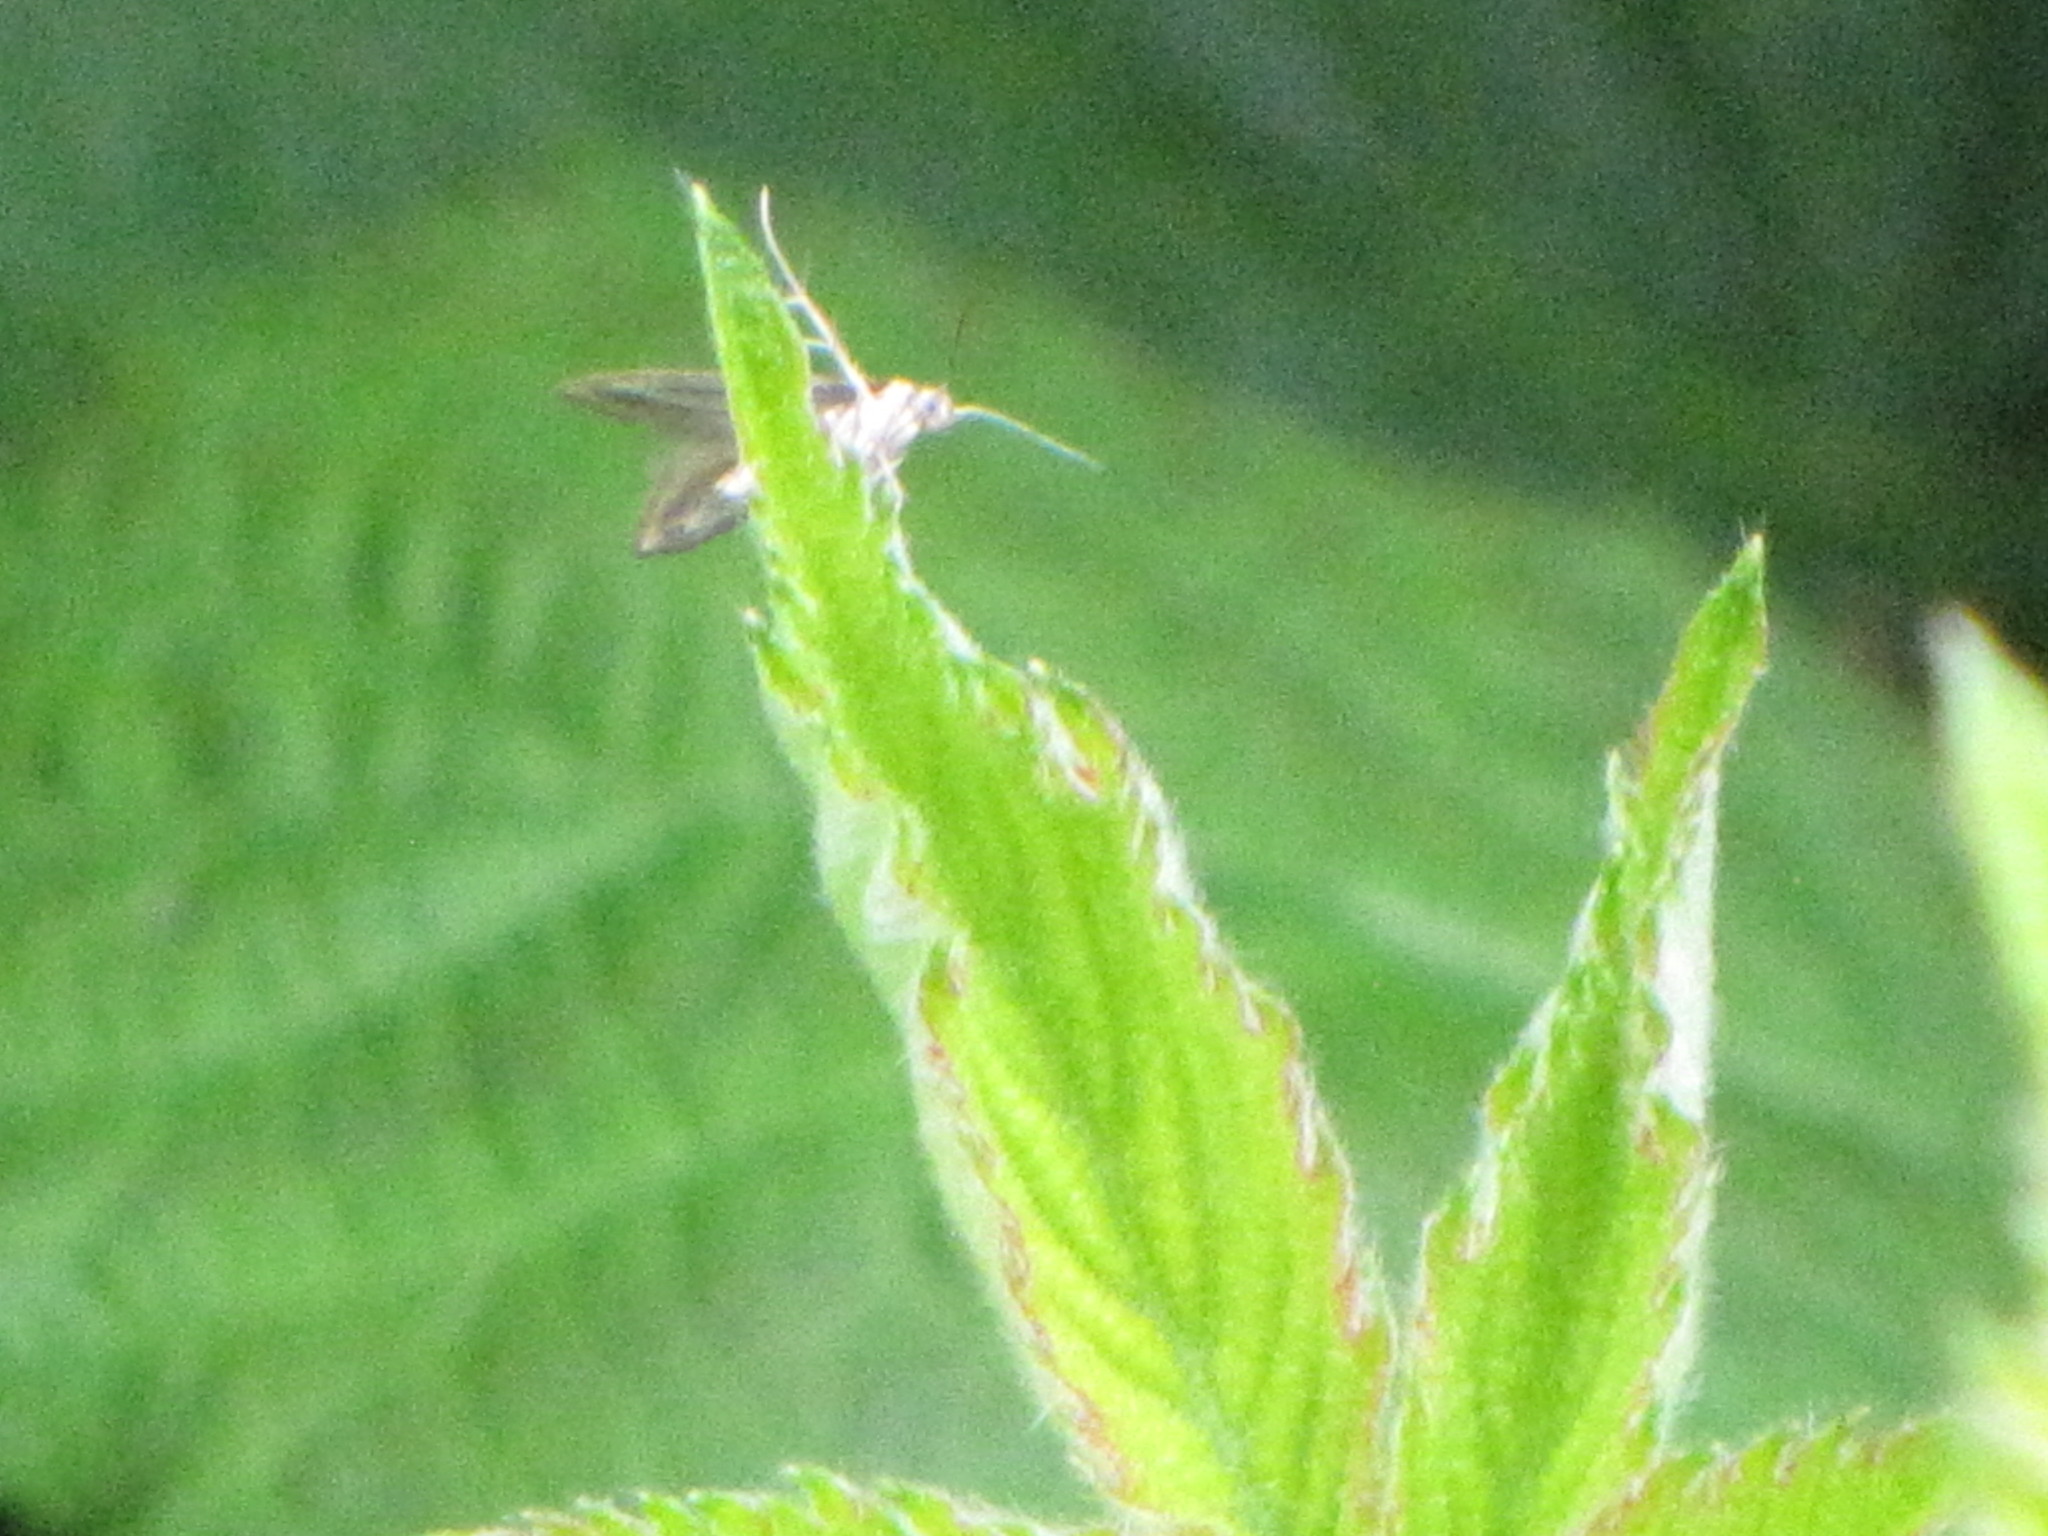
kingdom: Animalia
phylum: Arthropoda
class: Insecta
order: Lepidoptera
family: Schreckensteiniidae
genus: Schreckensteinia
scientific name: Schreckensteinia festaliella
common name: Blackberry skeletonizer
